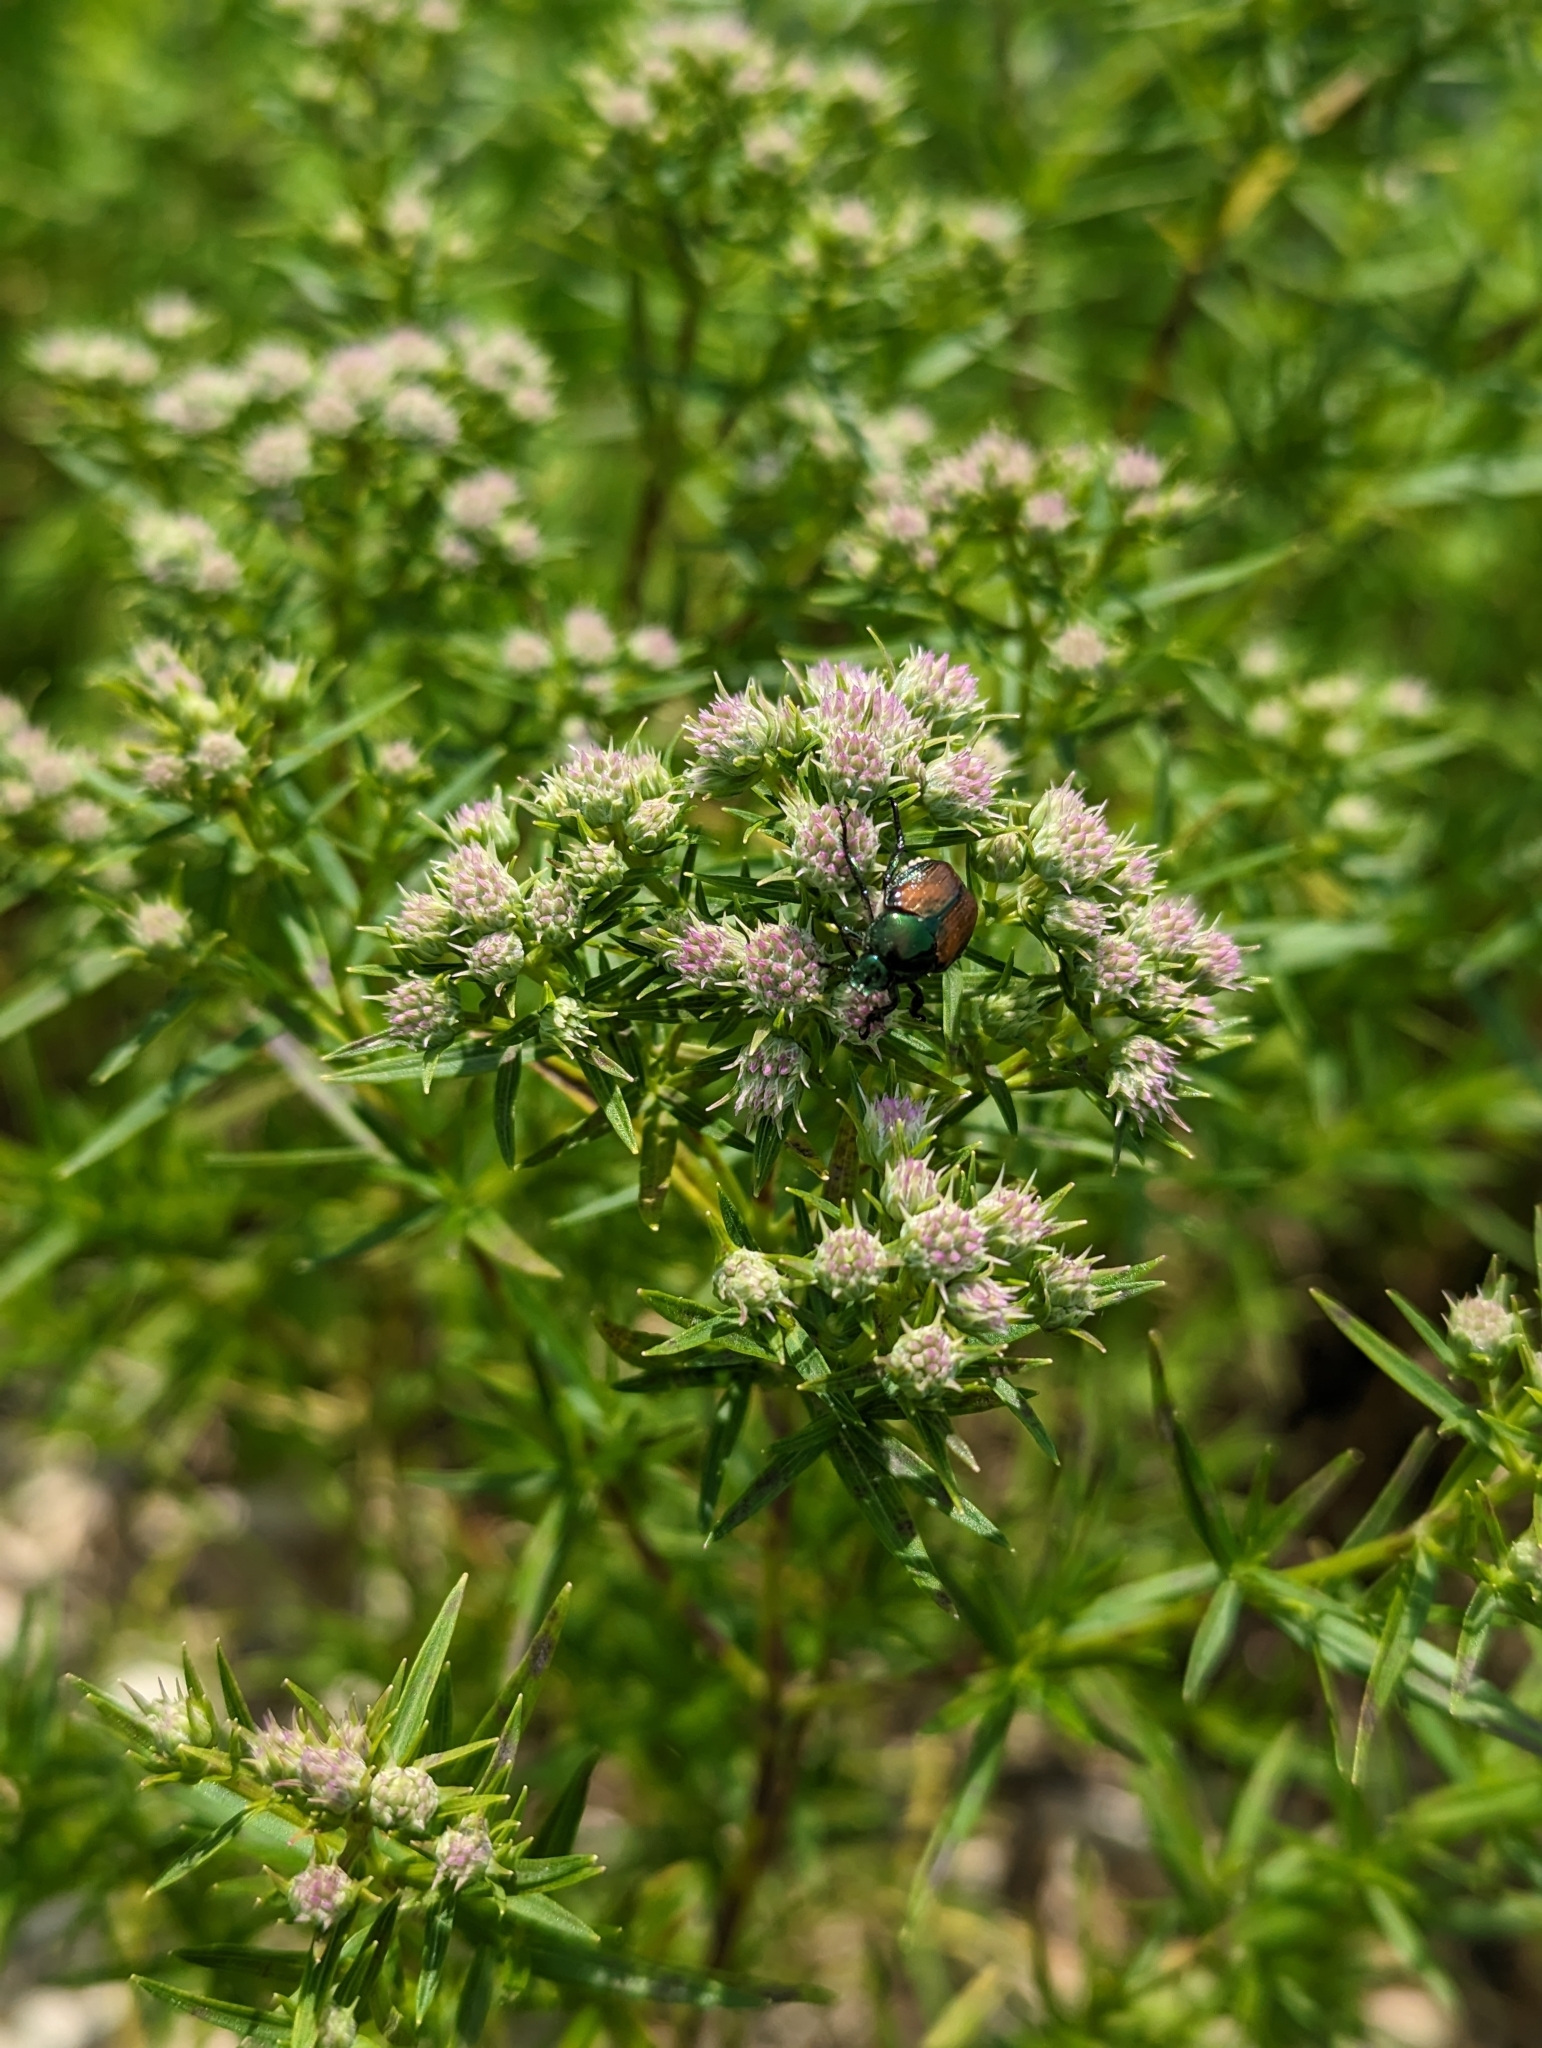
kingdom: Animalia
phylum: Arthropoda
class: Insecta
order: Coleoptera
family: Scarabaeidae
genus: Popillia
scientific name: Popillia japonica
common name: Japanese beetle
